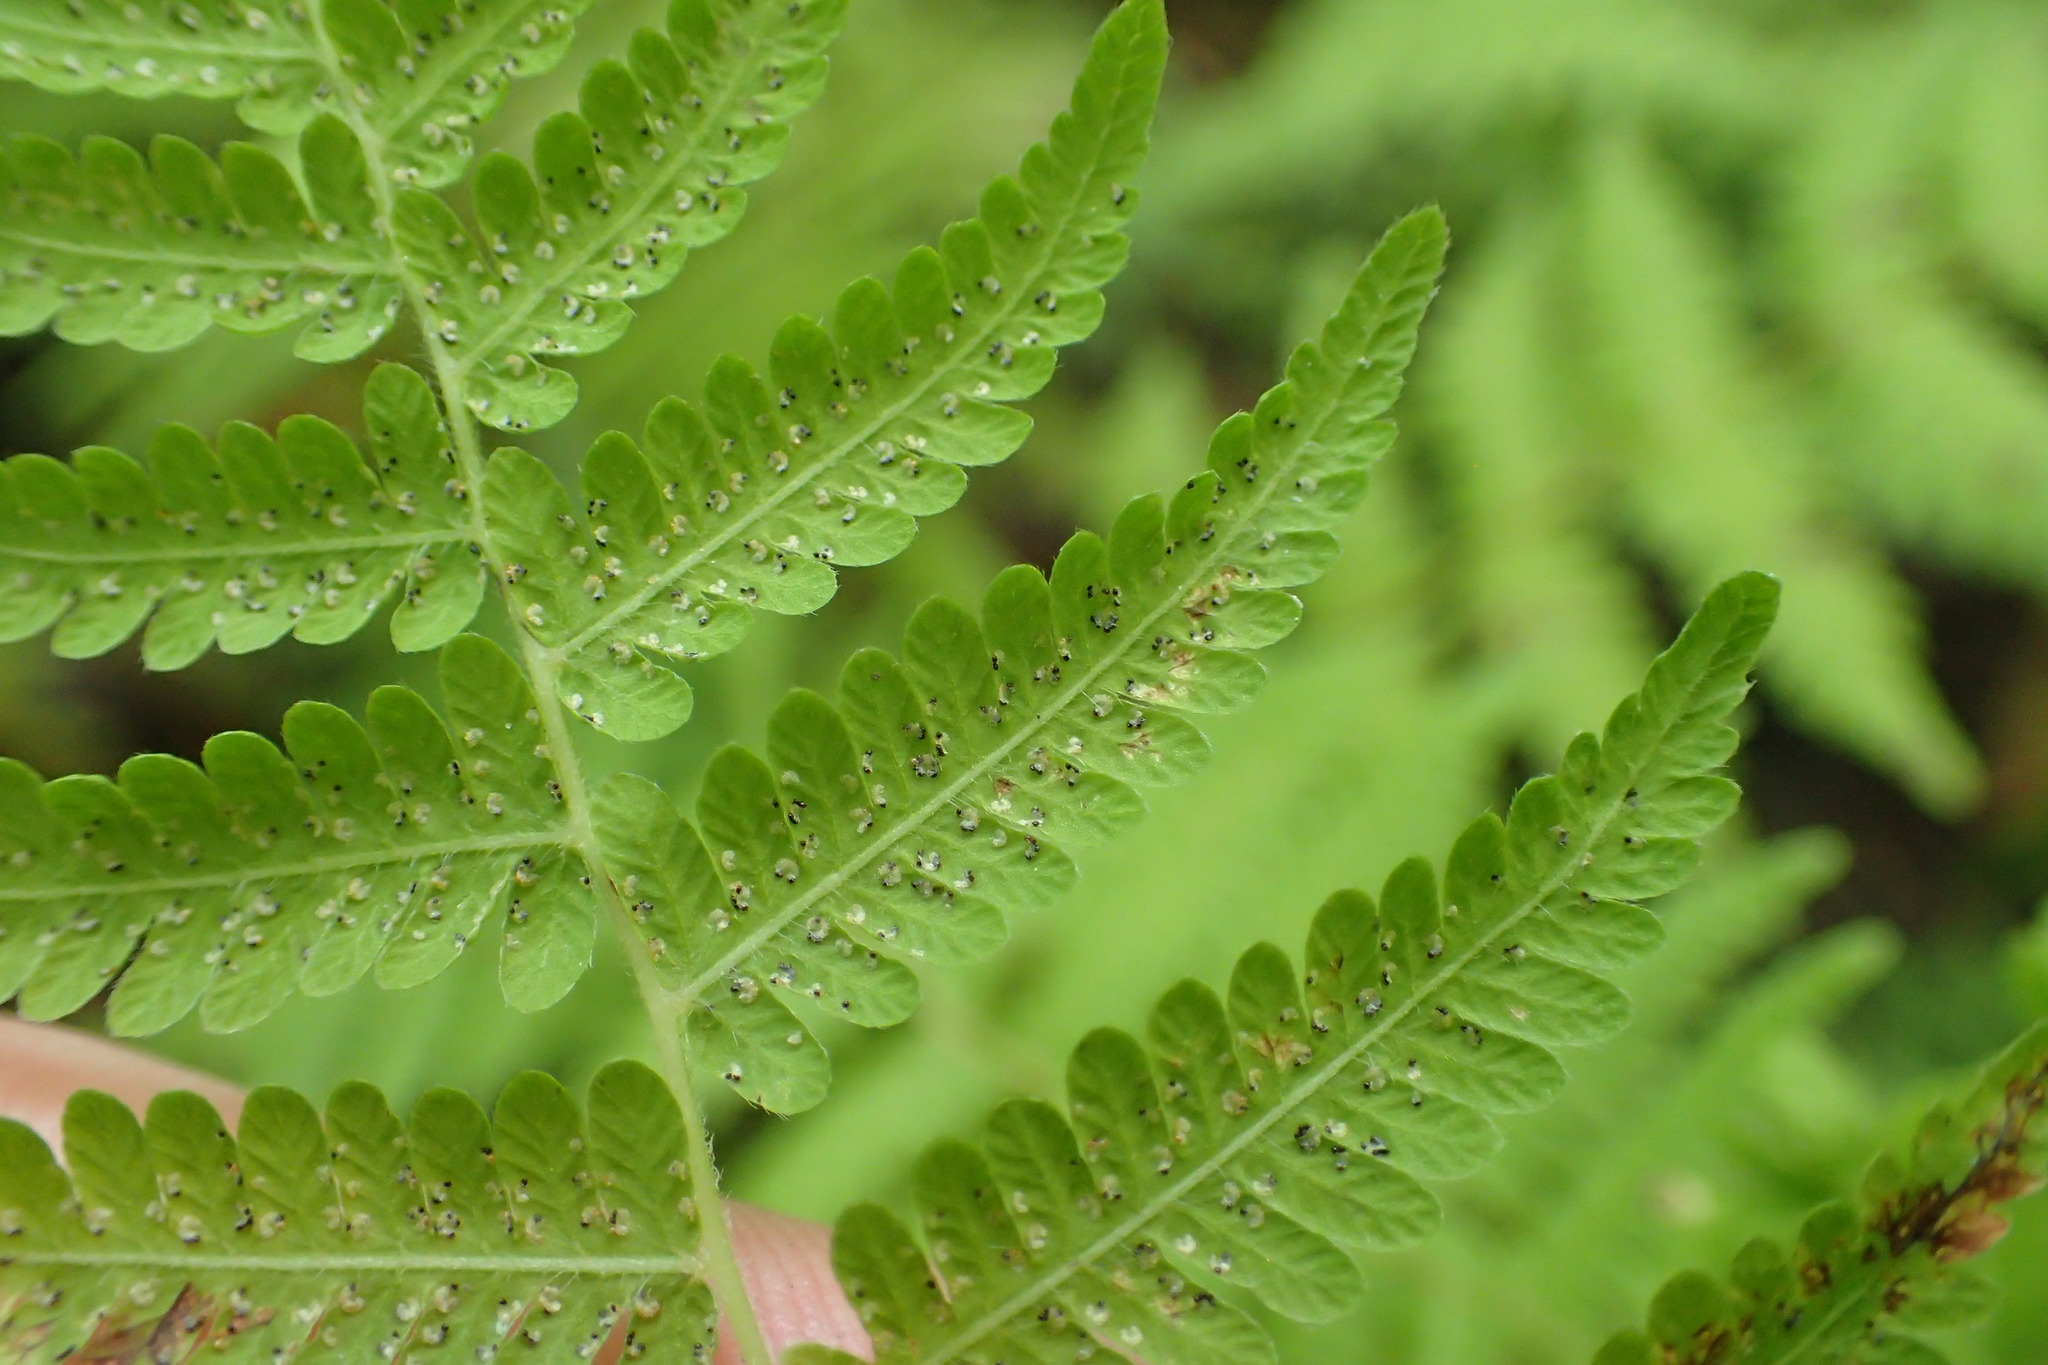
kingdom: Plantae
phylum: Tracheophyta
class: Polypodiopsida
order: Polypodiales
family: Thelypteridaceae
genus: Amauropelta
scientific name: Amauropelta noveboracensis
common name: New york fern
